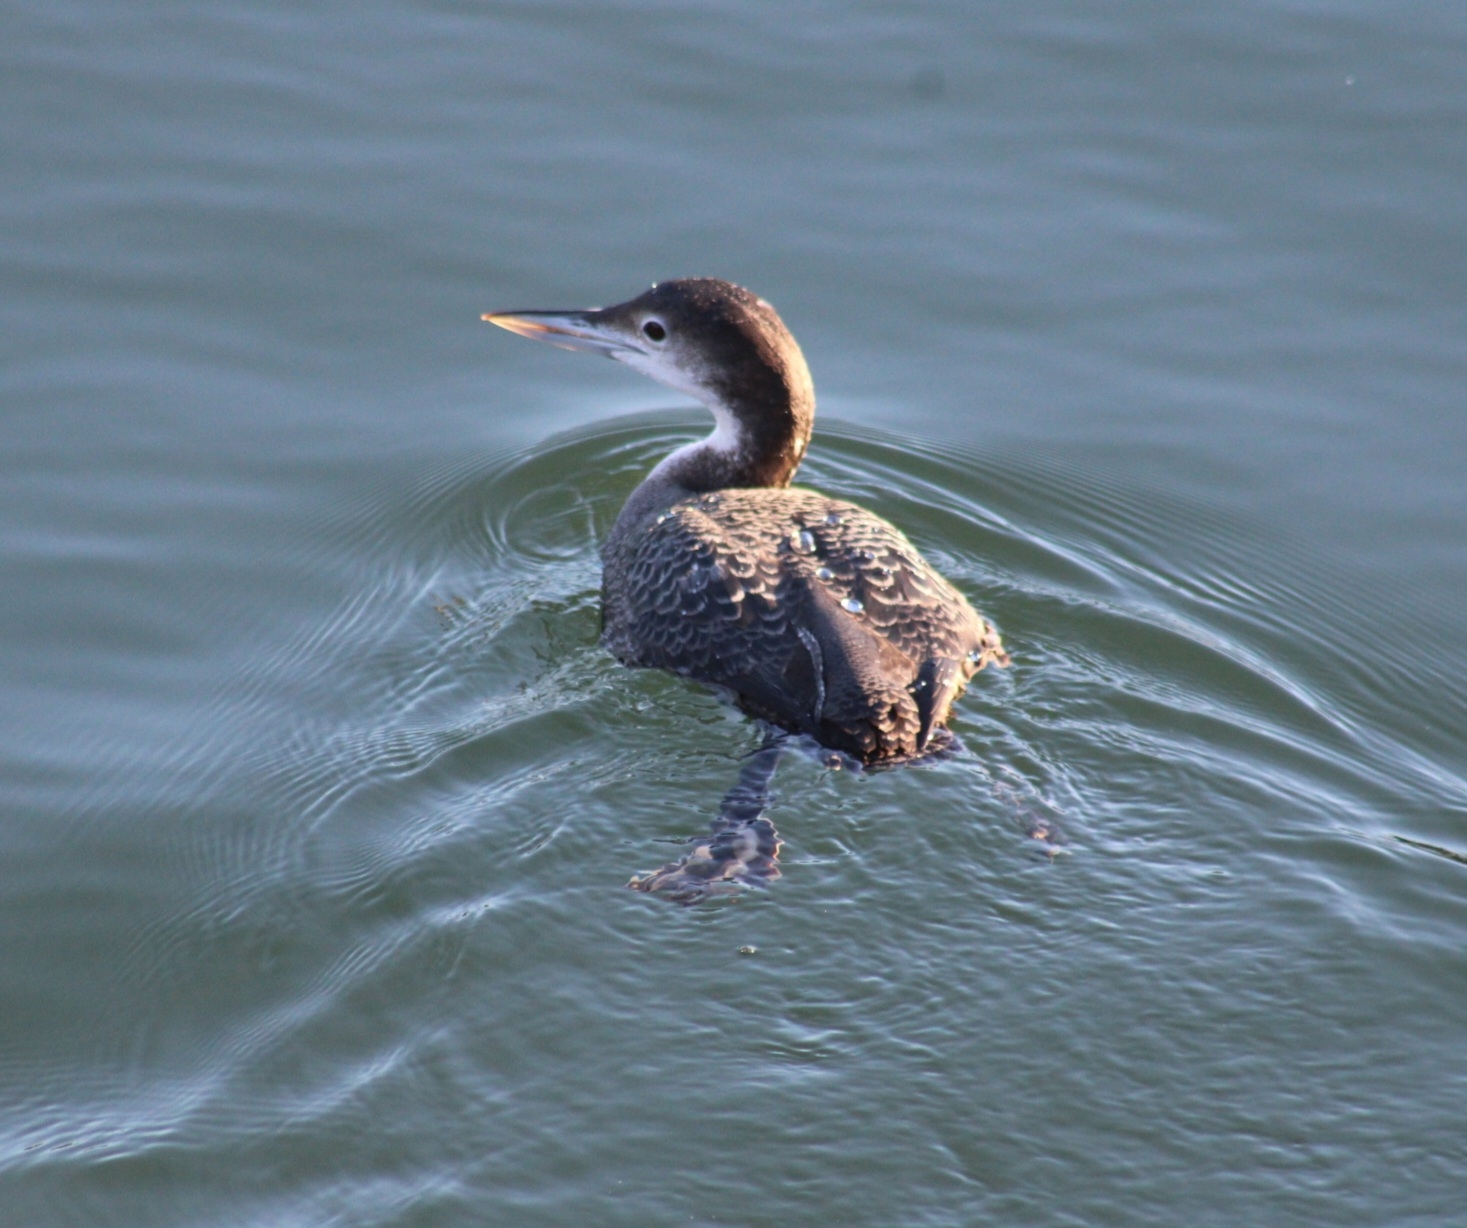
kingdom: Animalia
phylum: Chordata
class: Aves
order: Gaviiformes
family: Gaviidae
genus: Gavia
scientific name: Gavia immer
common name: Common loon
